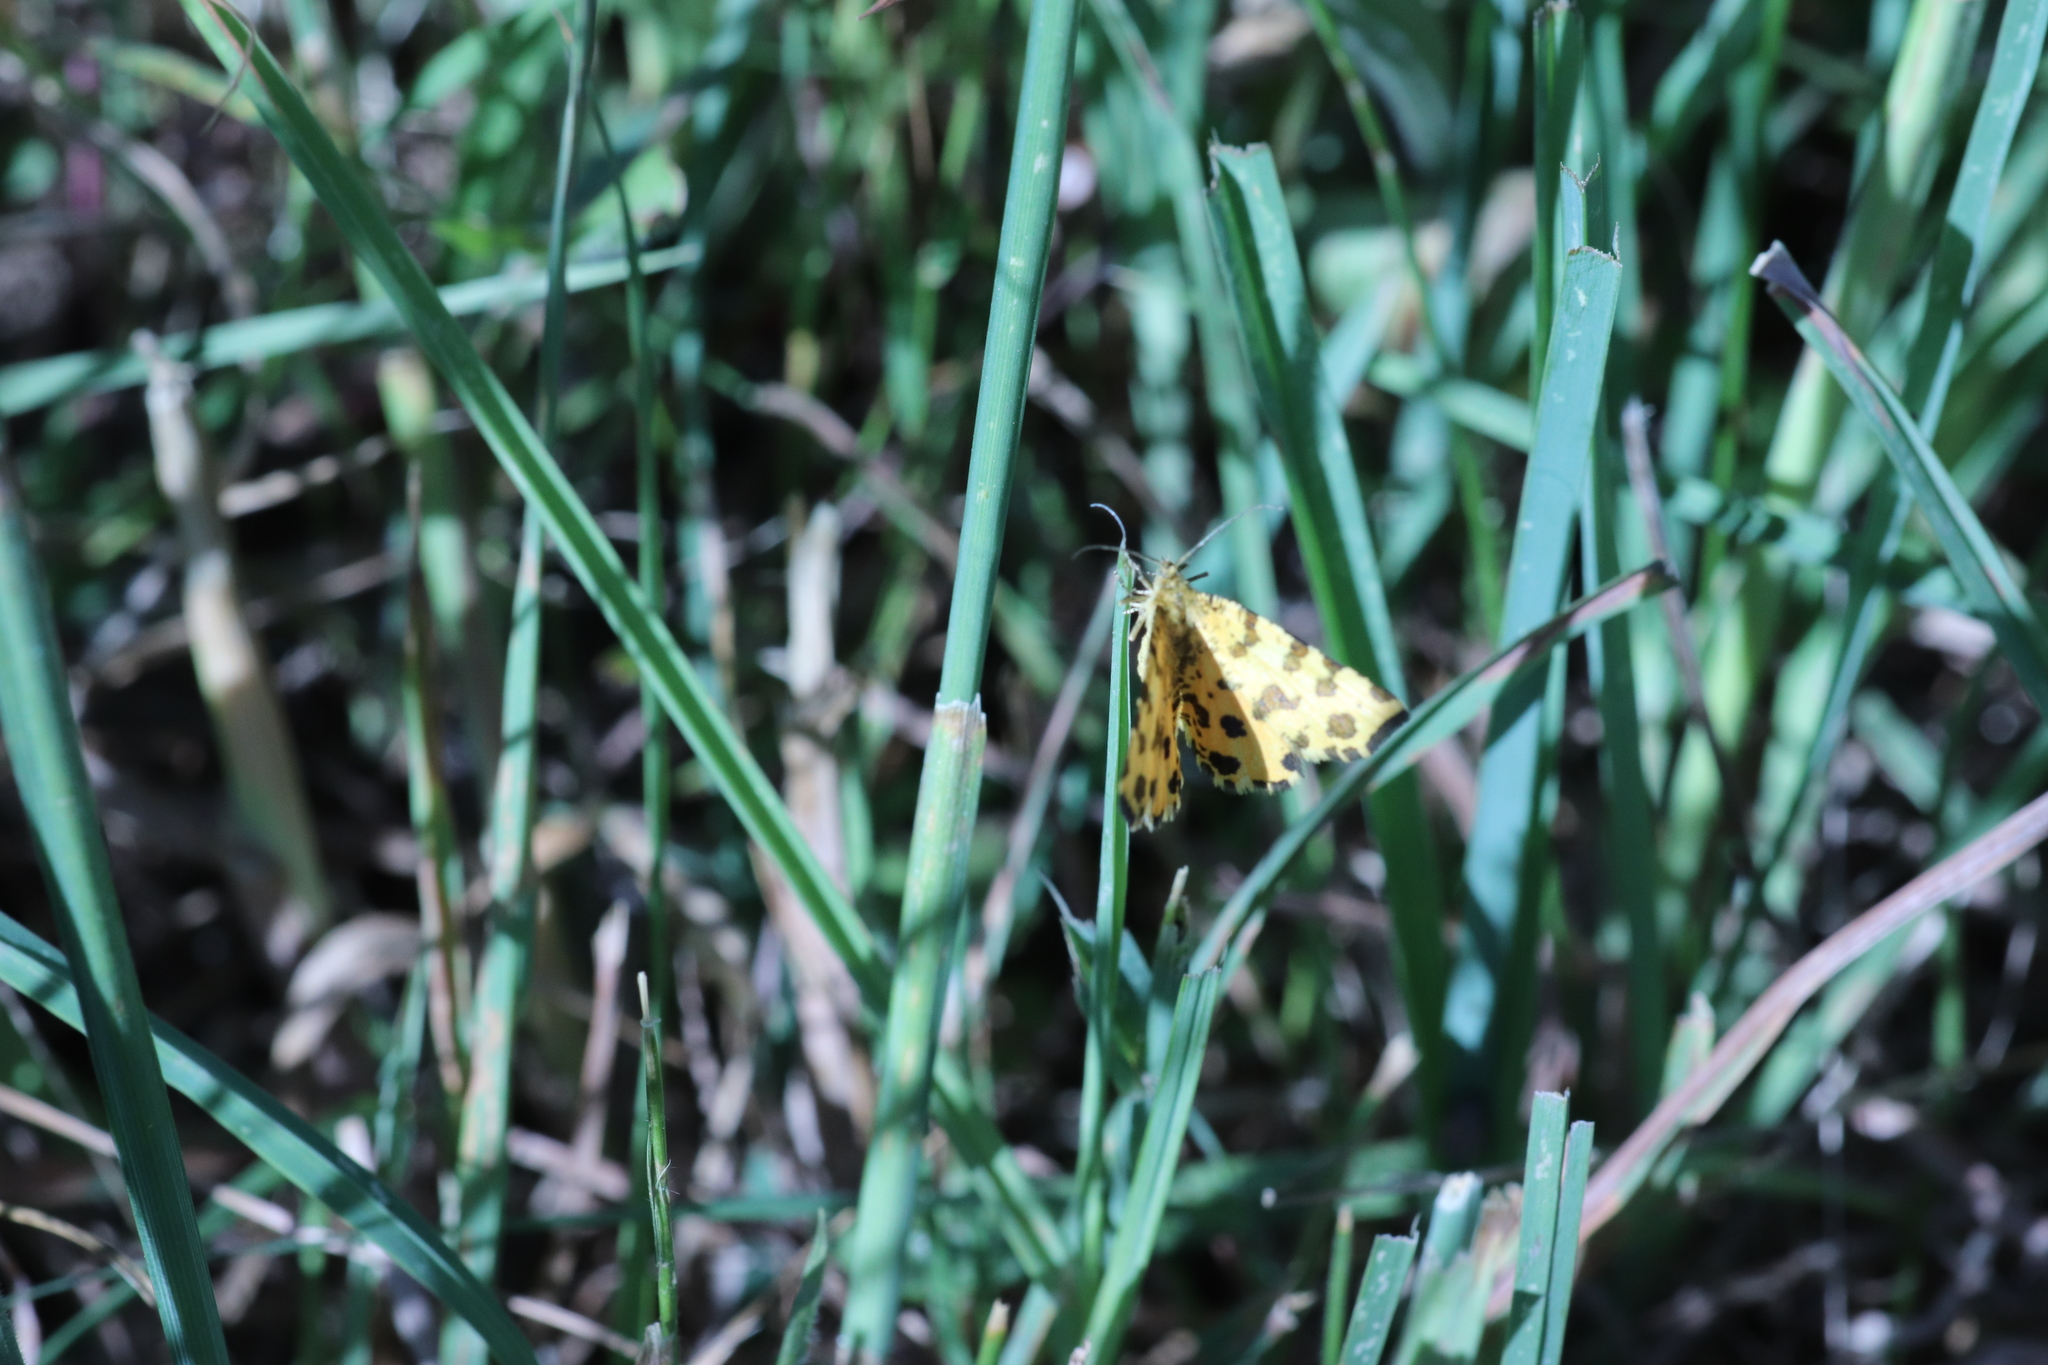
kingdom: Animalia
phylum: Arthropoda
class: Insecta
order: Lepidoptera
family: Geometridae
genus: Pseudopanthera
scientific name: Pseudopanthera macularia
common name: Speckled yellow
